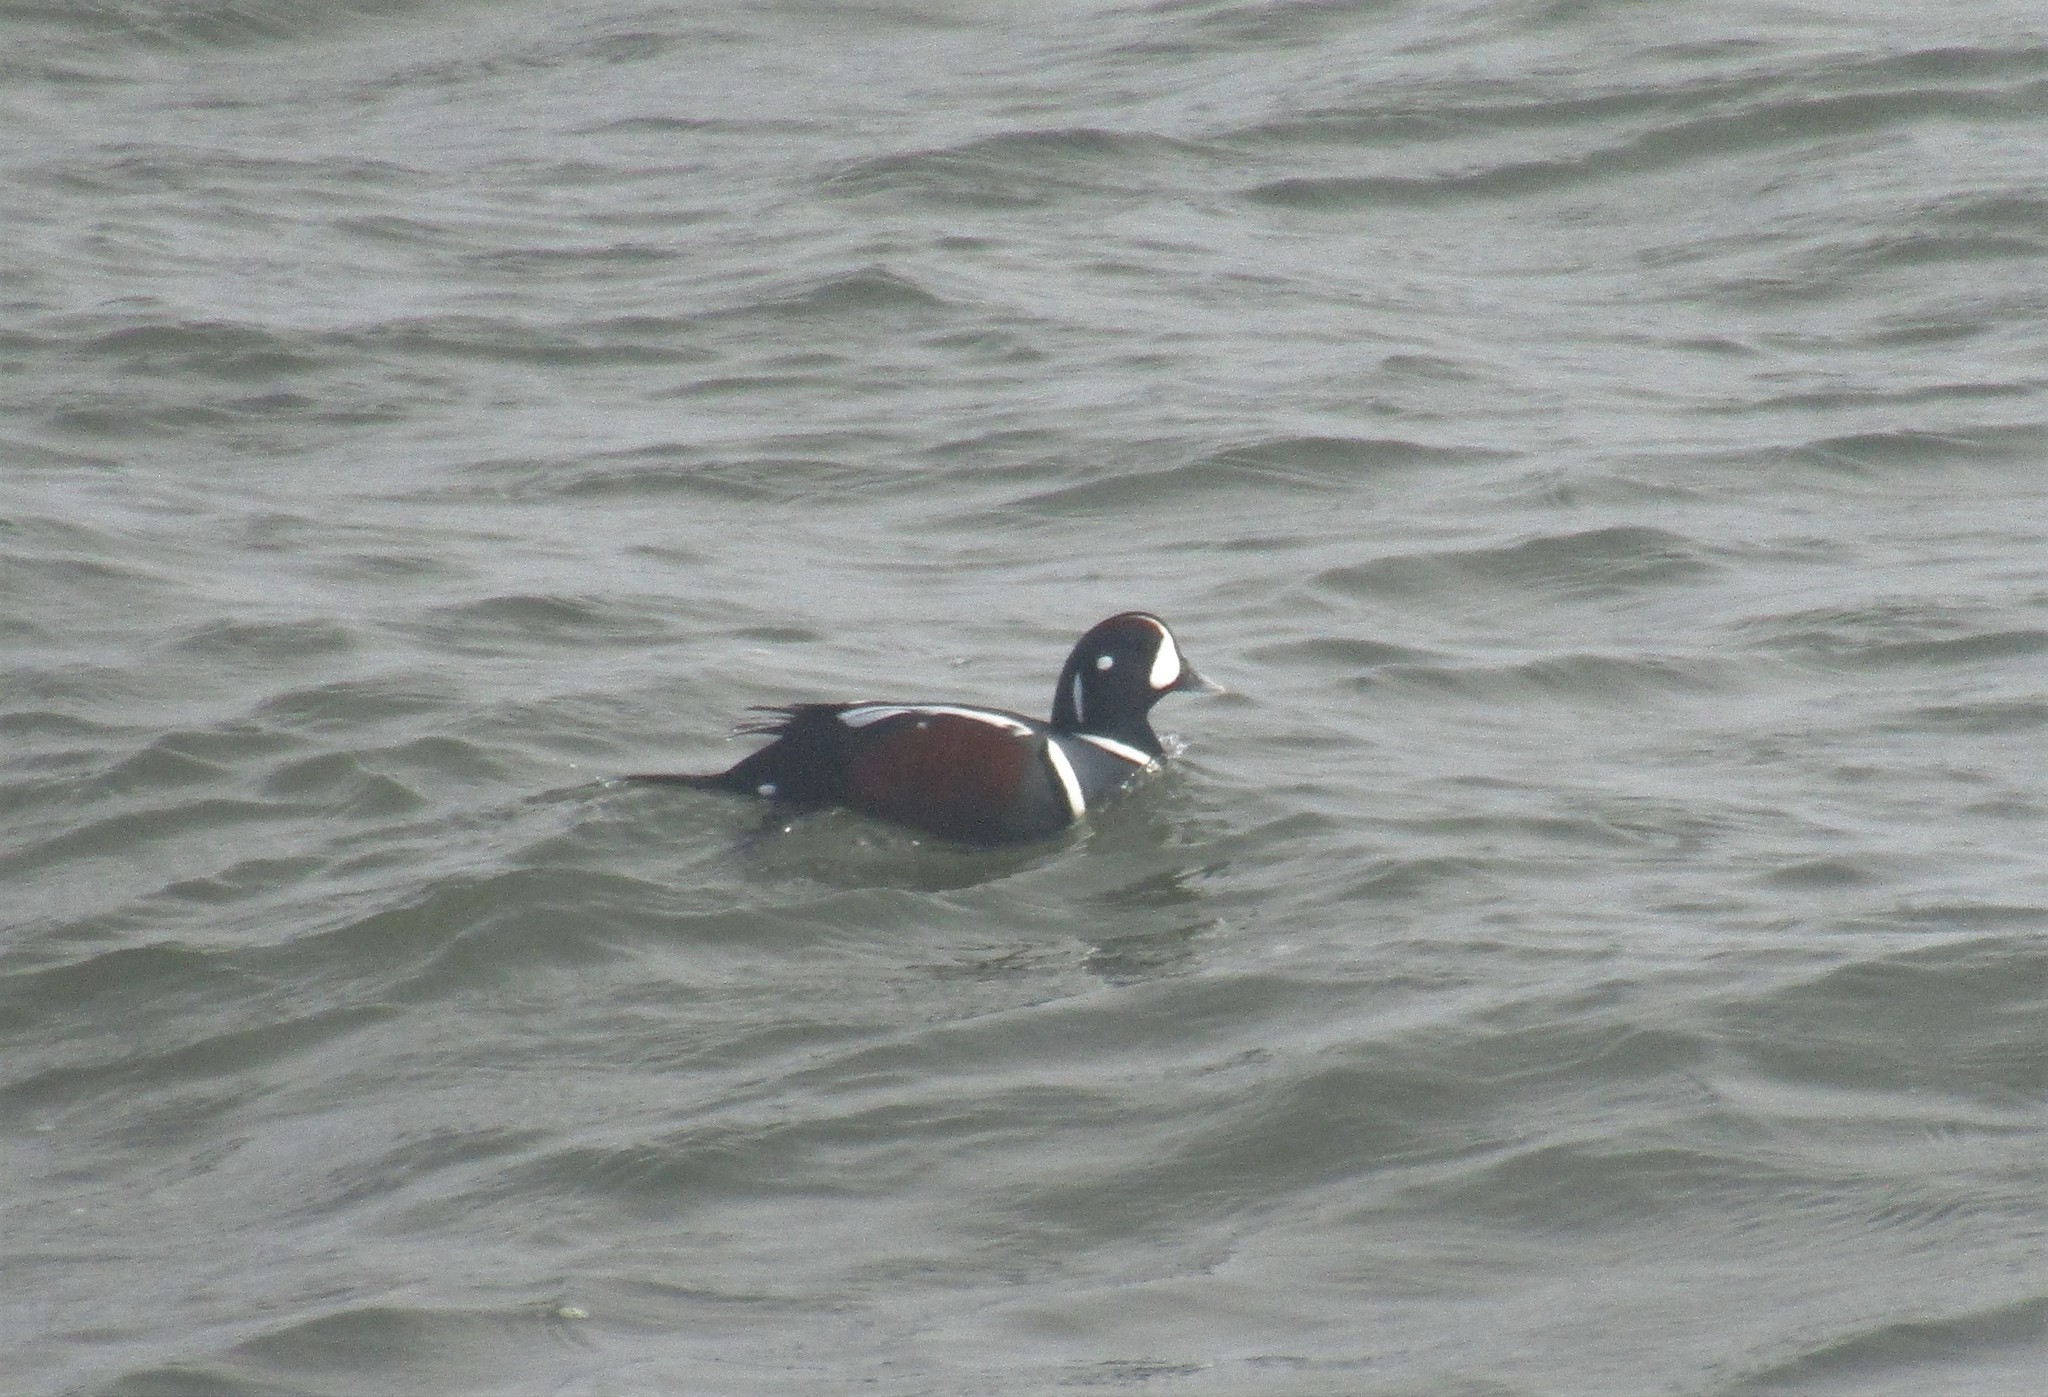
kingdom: Animalia
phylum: Chordata
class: Aves
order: Anseriformes
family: Anatidae
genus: Histrionicus
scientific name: Histrionicus histrionicus
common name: Harlequin duck
